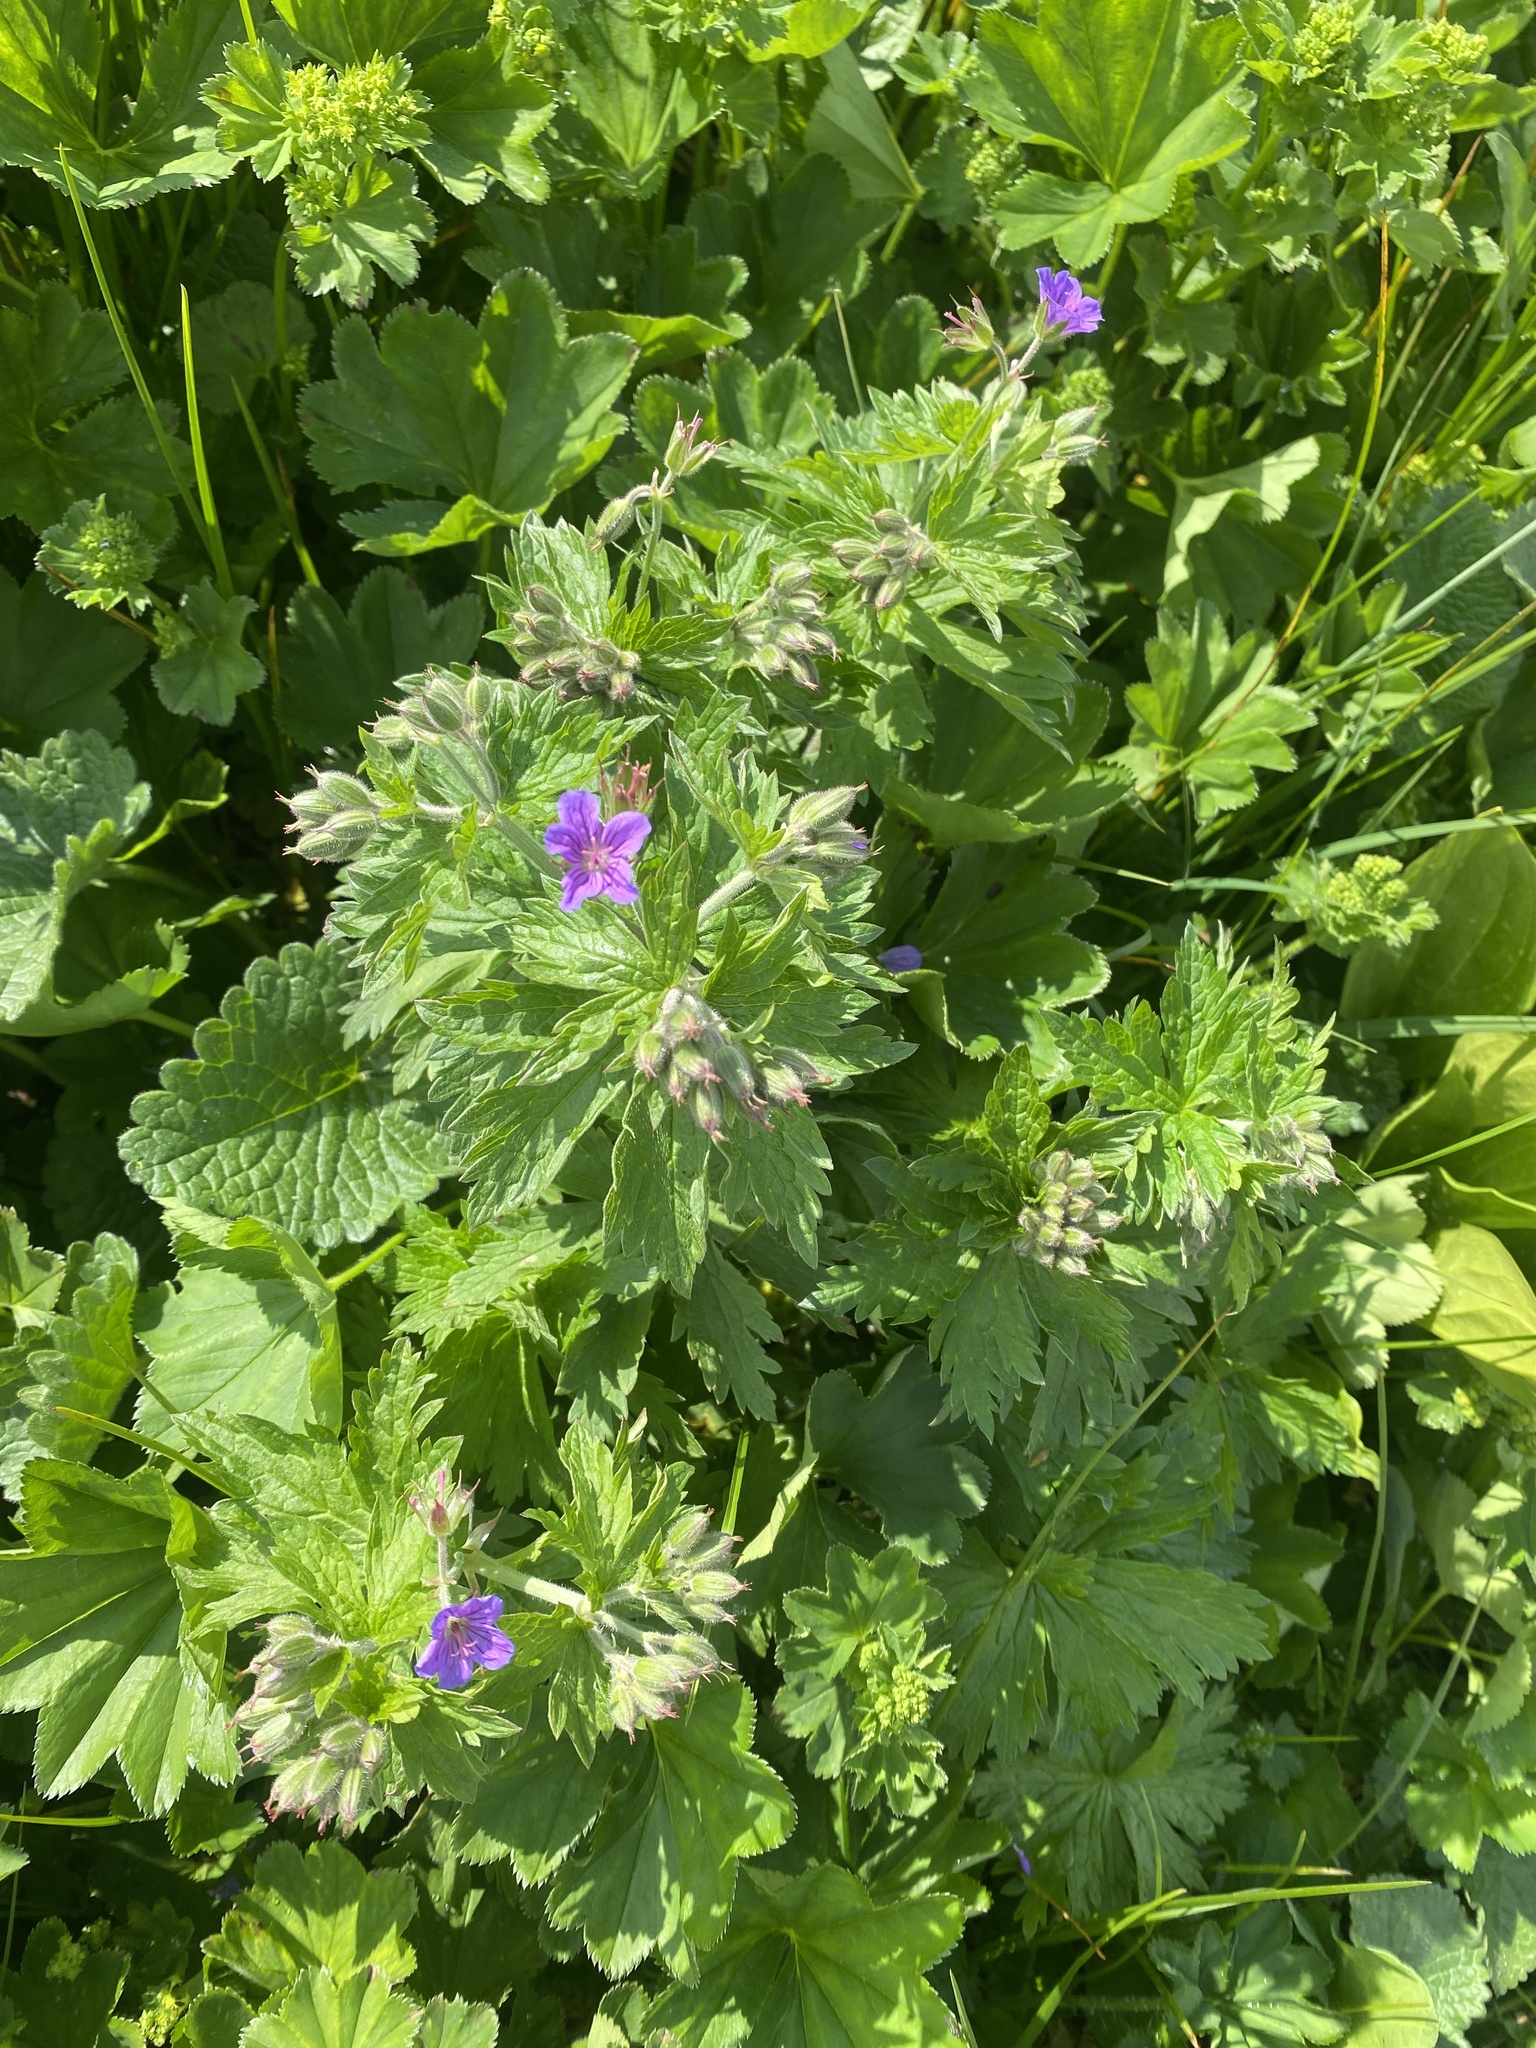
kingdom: Plantae
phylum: Tracheophyta
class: Magnoliopsida
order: Geraniales
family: Geraniaceae
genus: Geranium
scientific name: Geranium sylvaticum
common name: Wood crane's-bill
